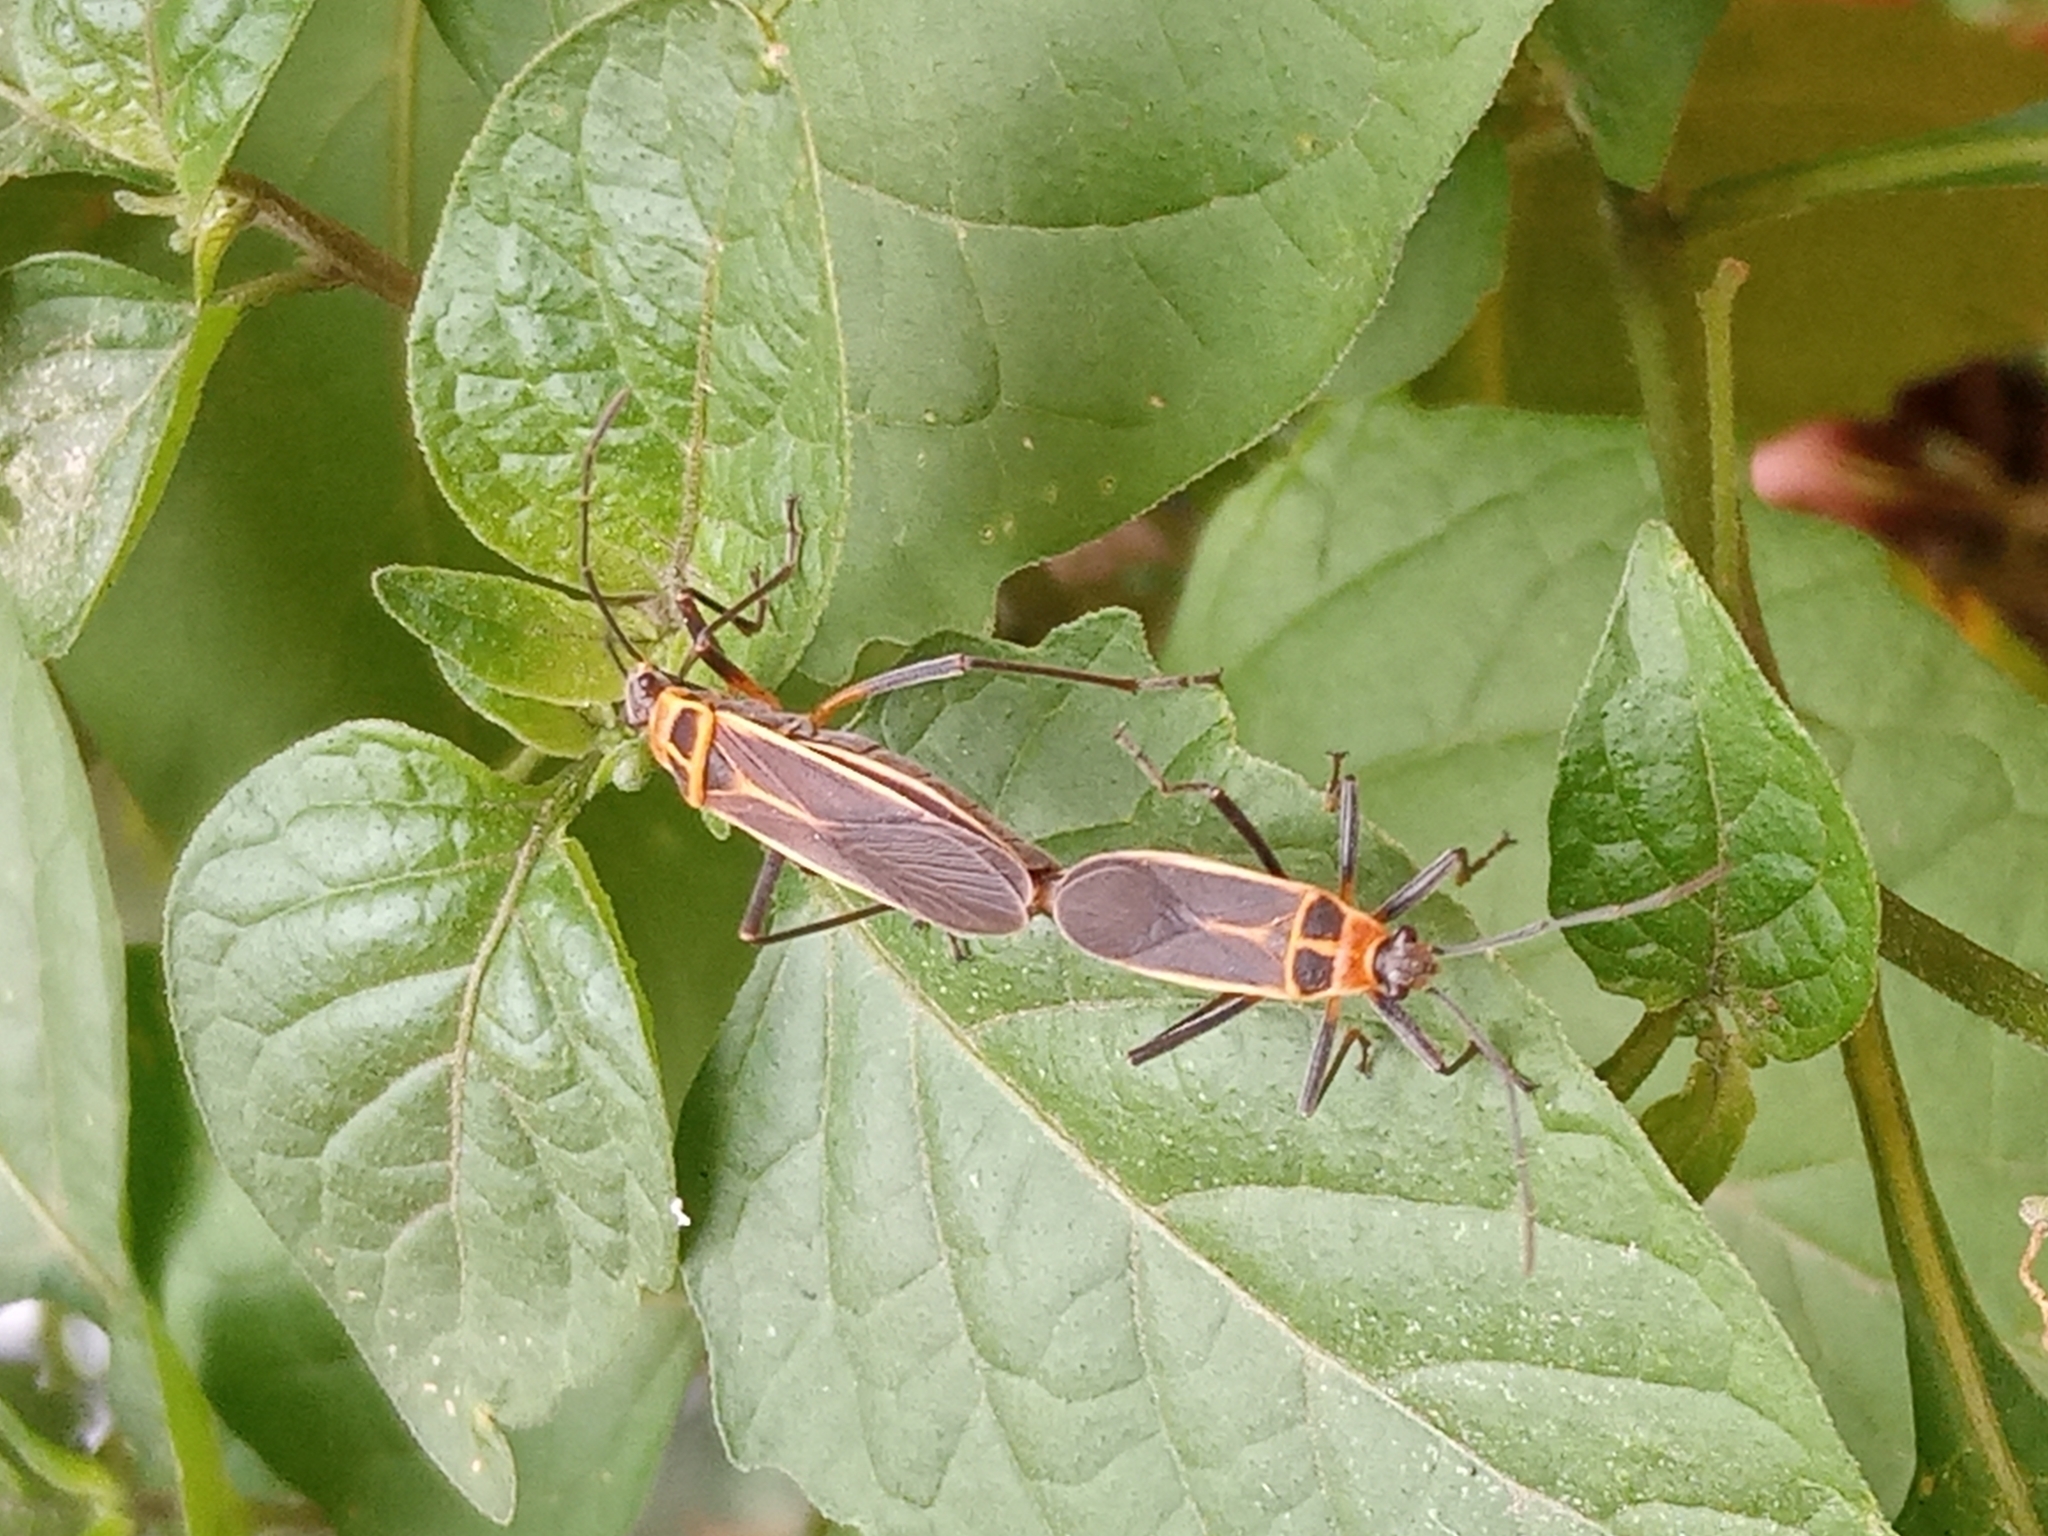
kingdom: Animalia
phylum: Arthropoda
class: Insecta
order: Hemiptera
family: Largidae
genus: Stenomacra
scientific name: Stenomacra marginella
